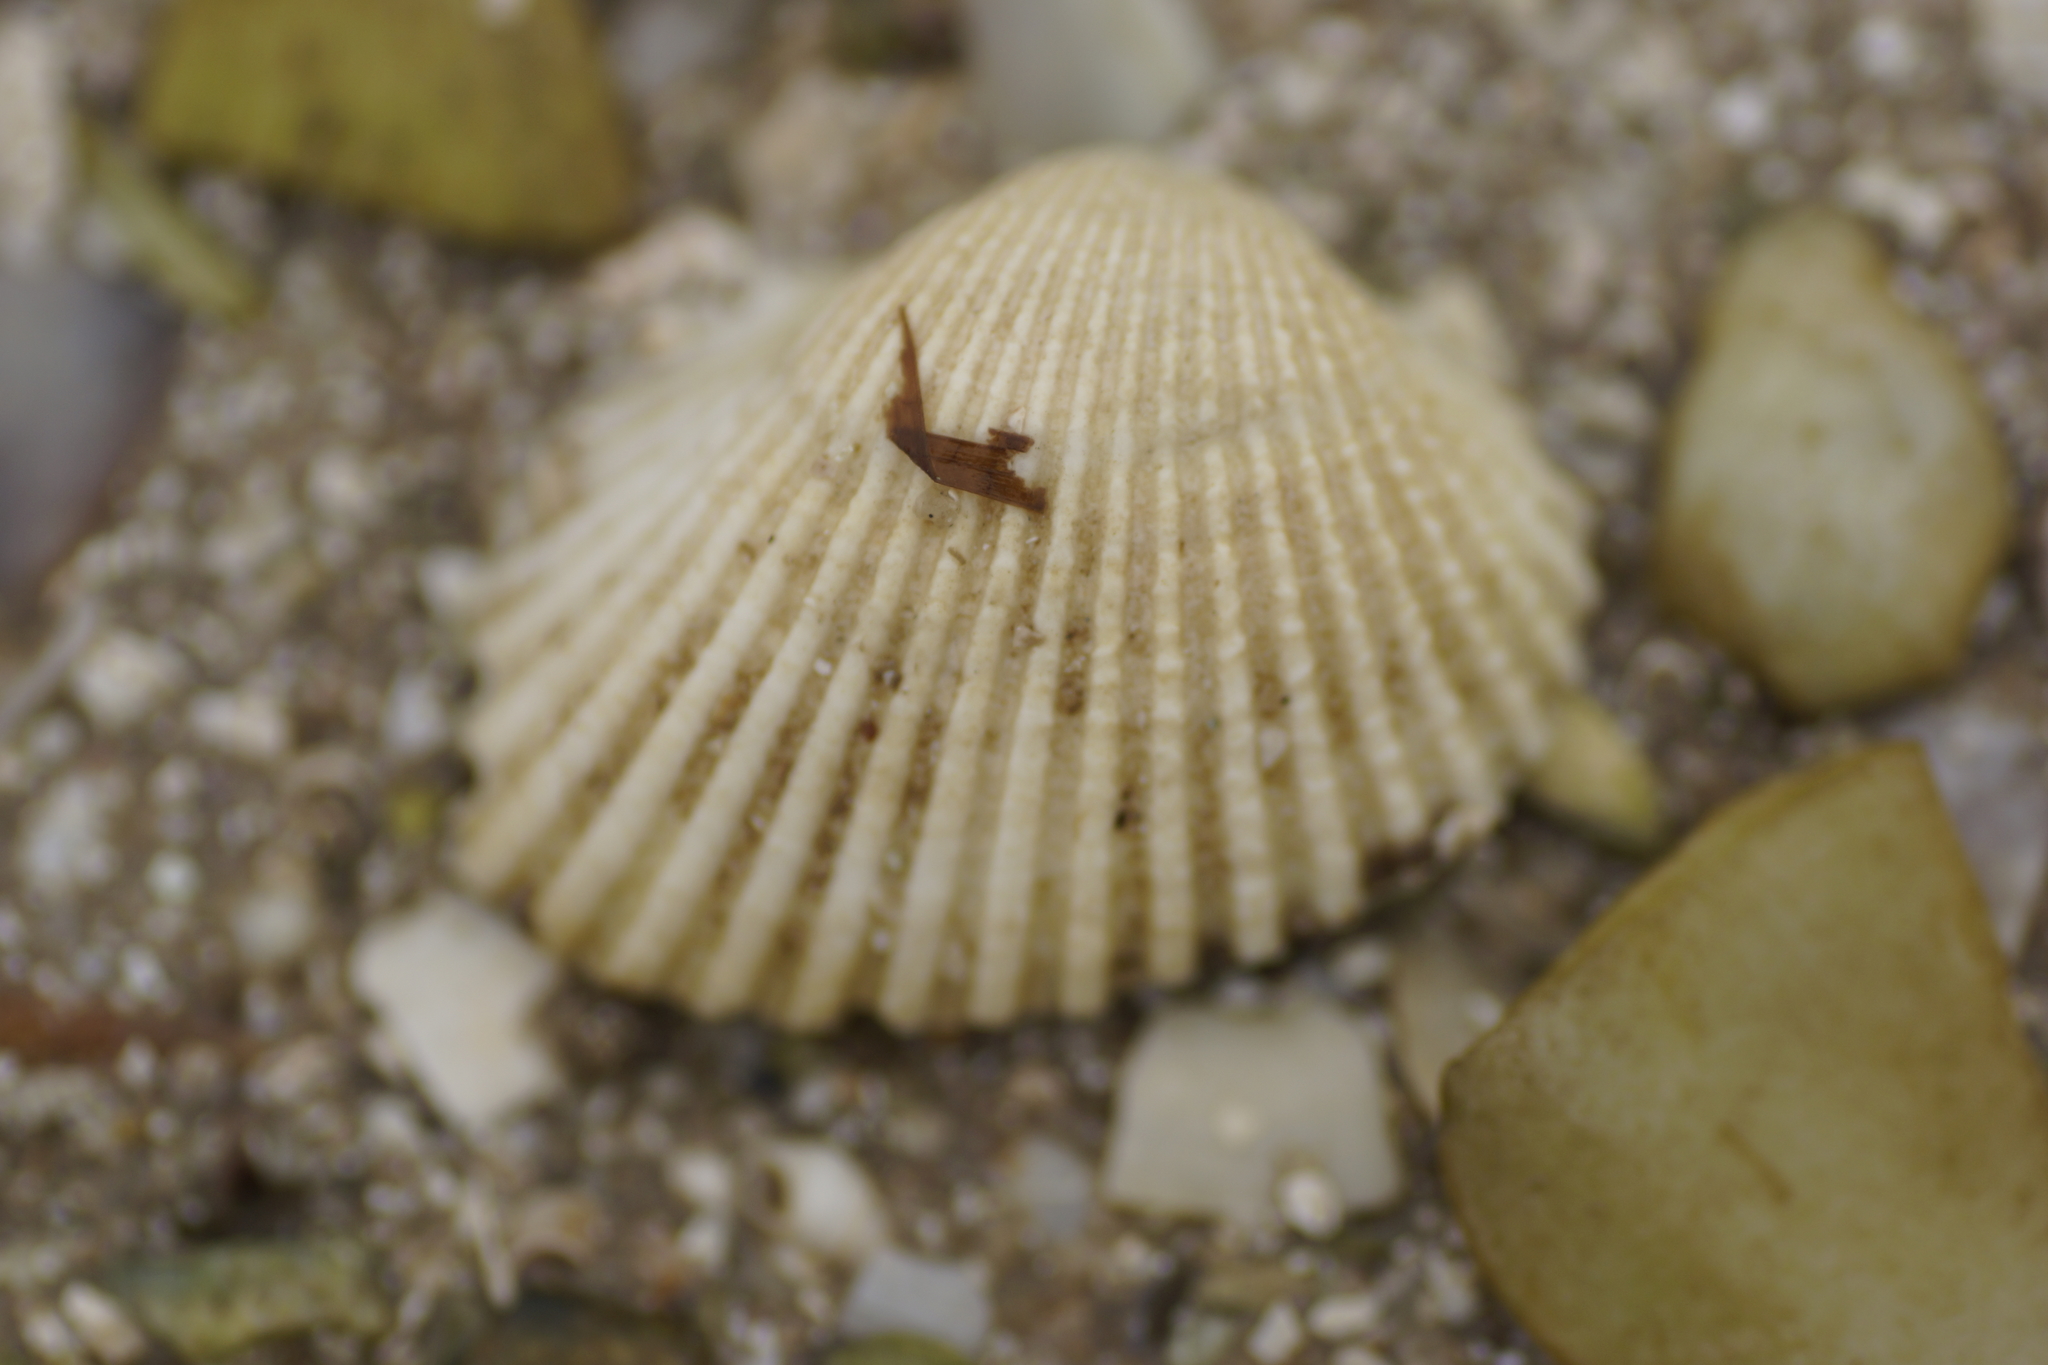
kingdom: Animalia
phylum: Mollusca
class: Bivalvia
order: Arcida
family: Arcidae
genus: Anadara
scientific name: Anadara trapezia
